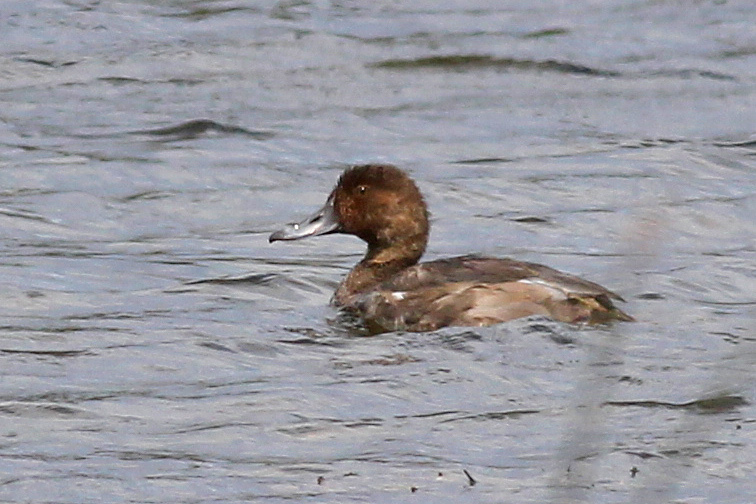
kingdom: Animalia
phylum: Chordata
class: Aves
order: Anseriformes
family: Anatidae
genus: Aythya
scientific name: Aythya americana
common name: Redhead
